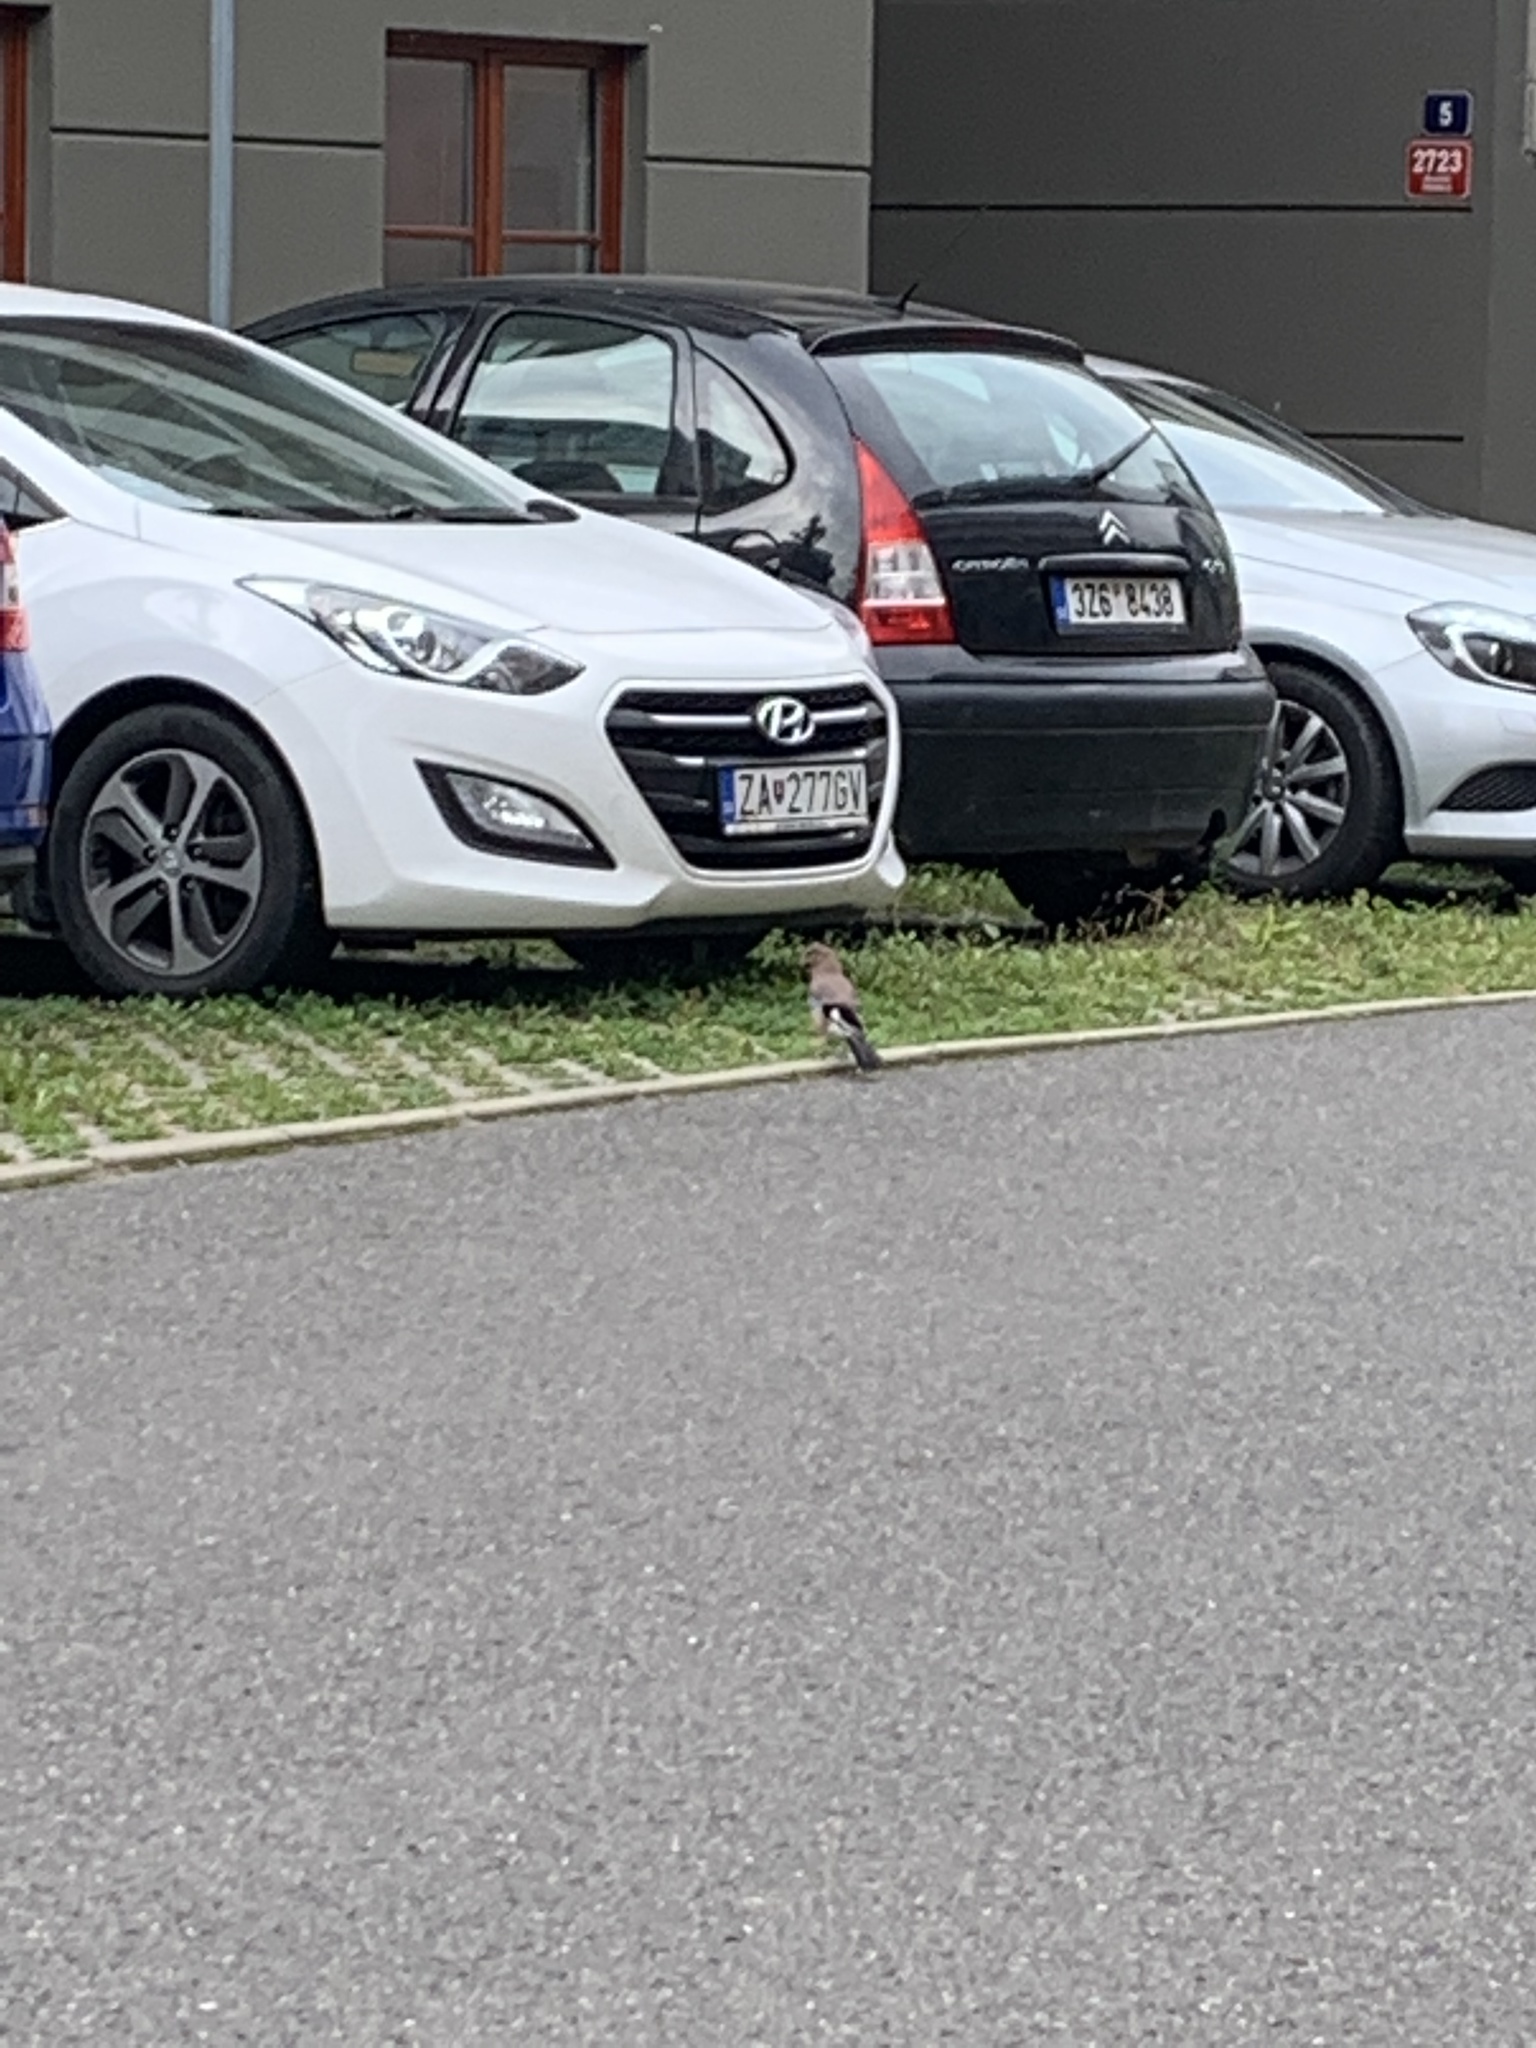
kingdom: Animalia
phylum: Chordata
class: Aves
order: Passeriformes
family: Corvidae
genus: Garrulus
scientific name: Garrulus glandarius
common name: Eurasian jay
